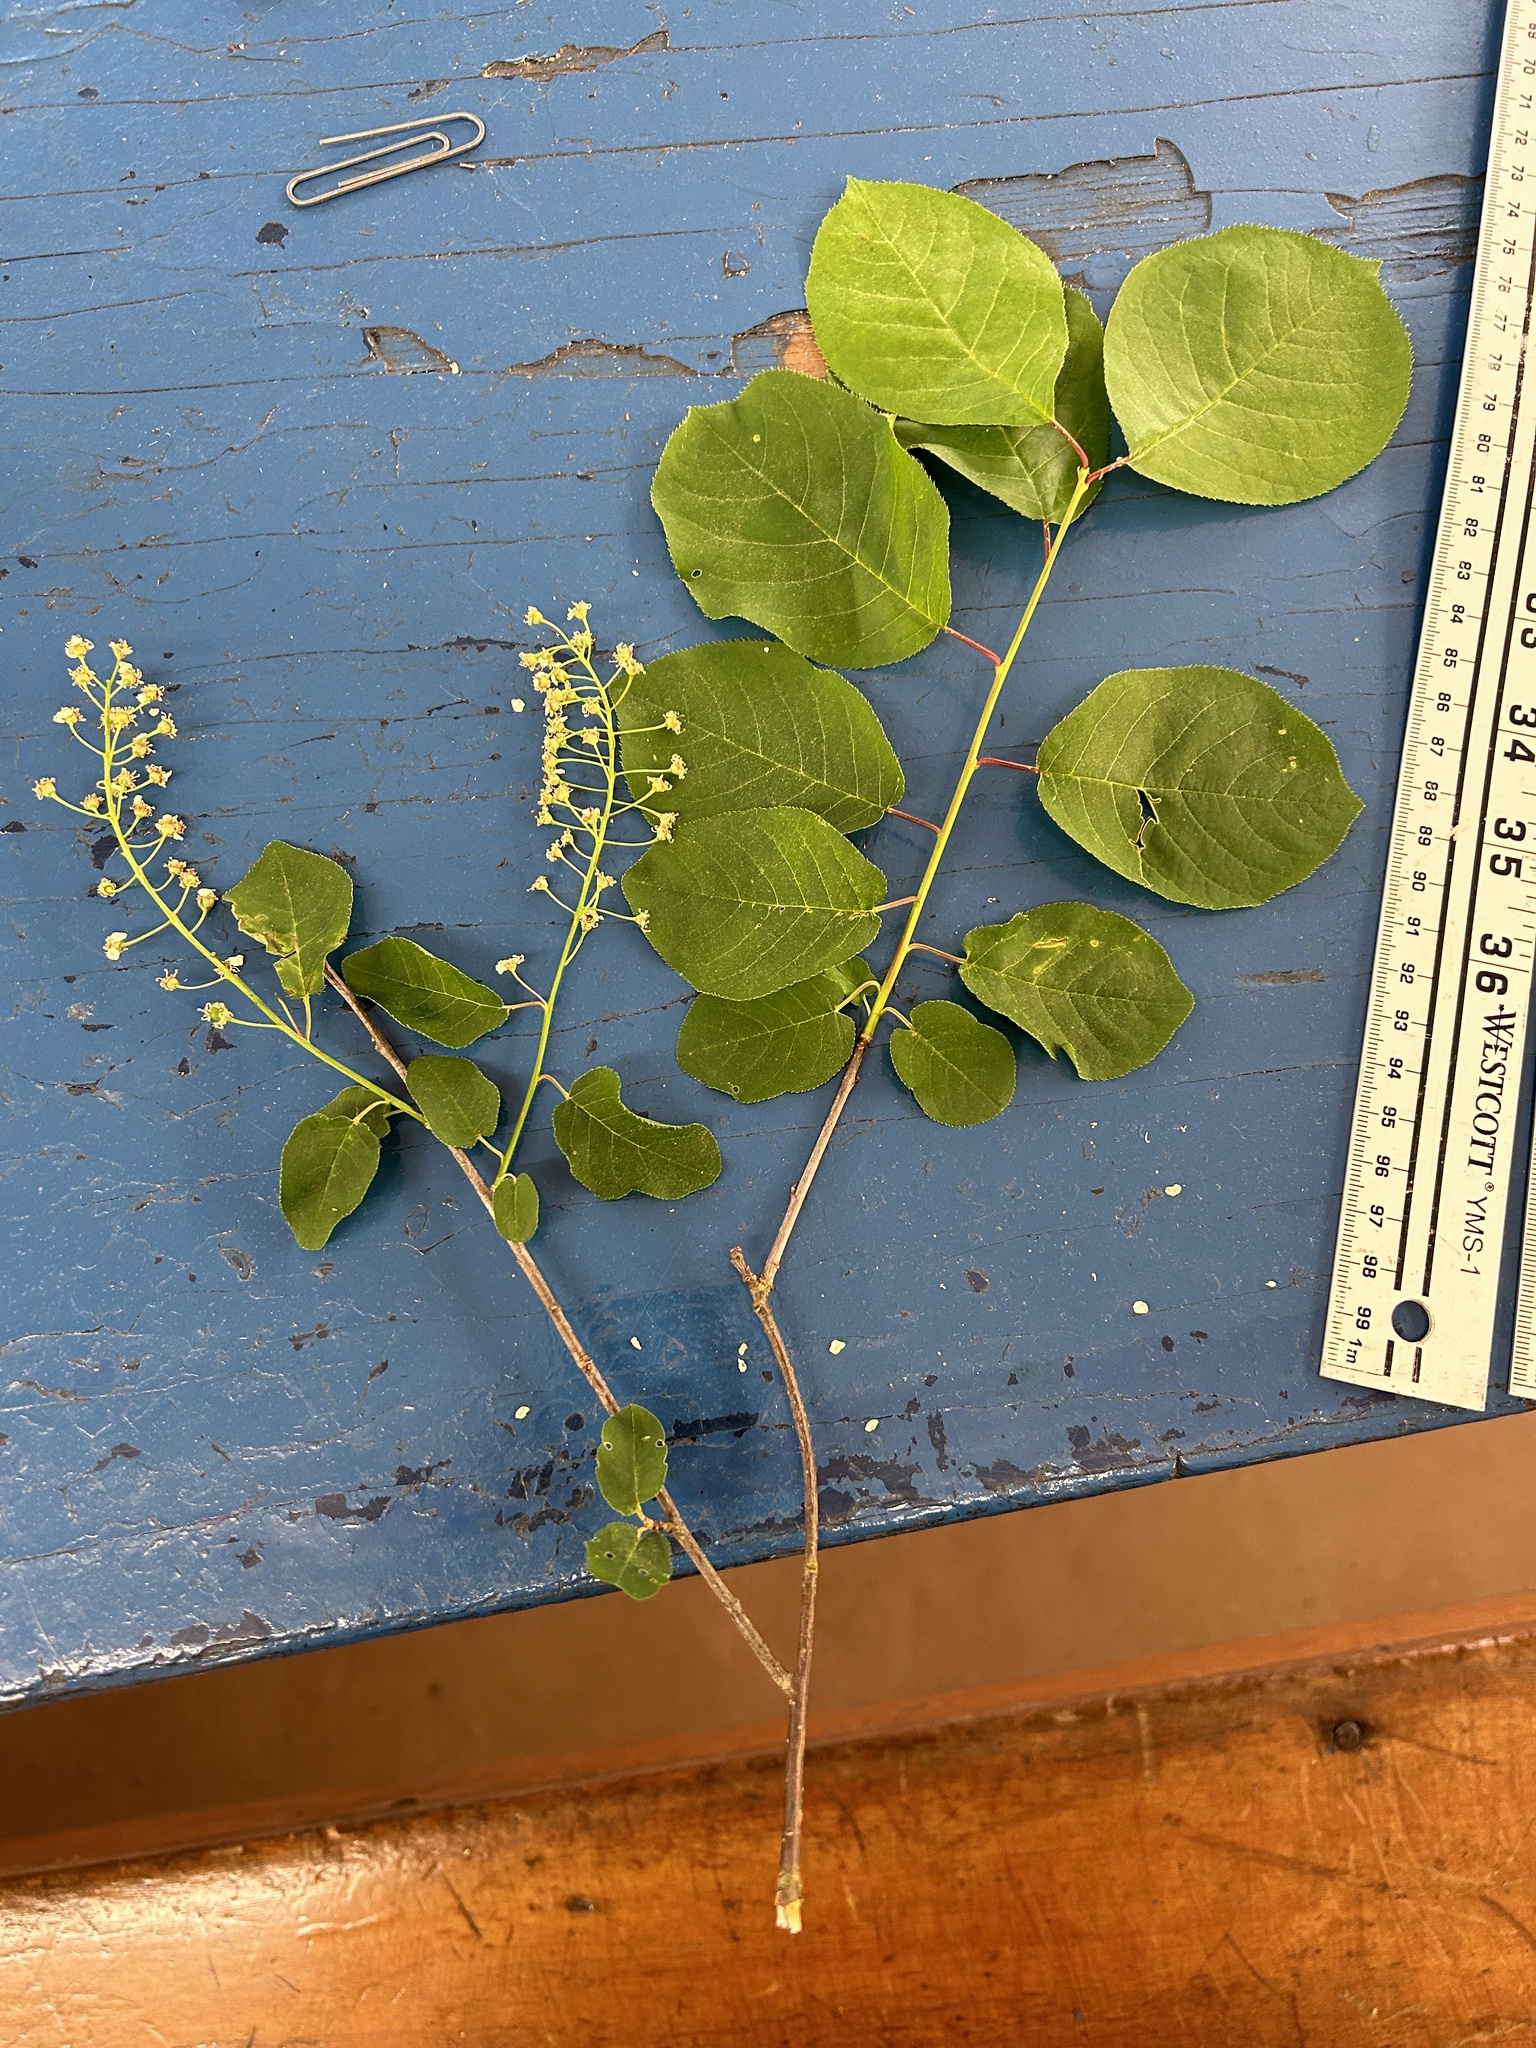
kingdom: Plantae
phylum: Tracheophyta
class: Magnoliopsida
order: Rosales
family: Rosaceae
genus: Prunus
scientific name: Prunus virginiana
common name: Chokecherry
